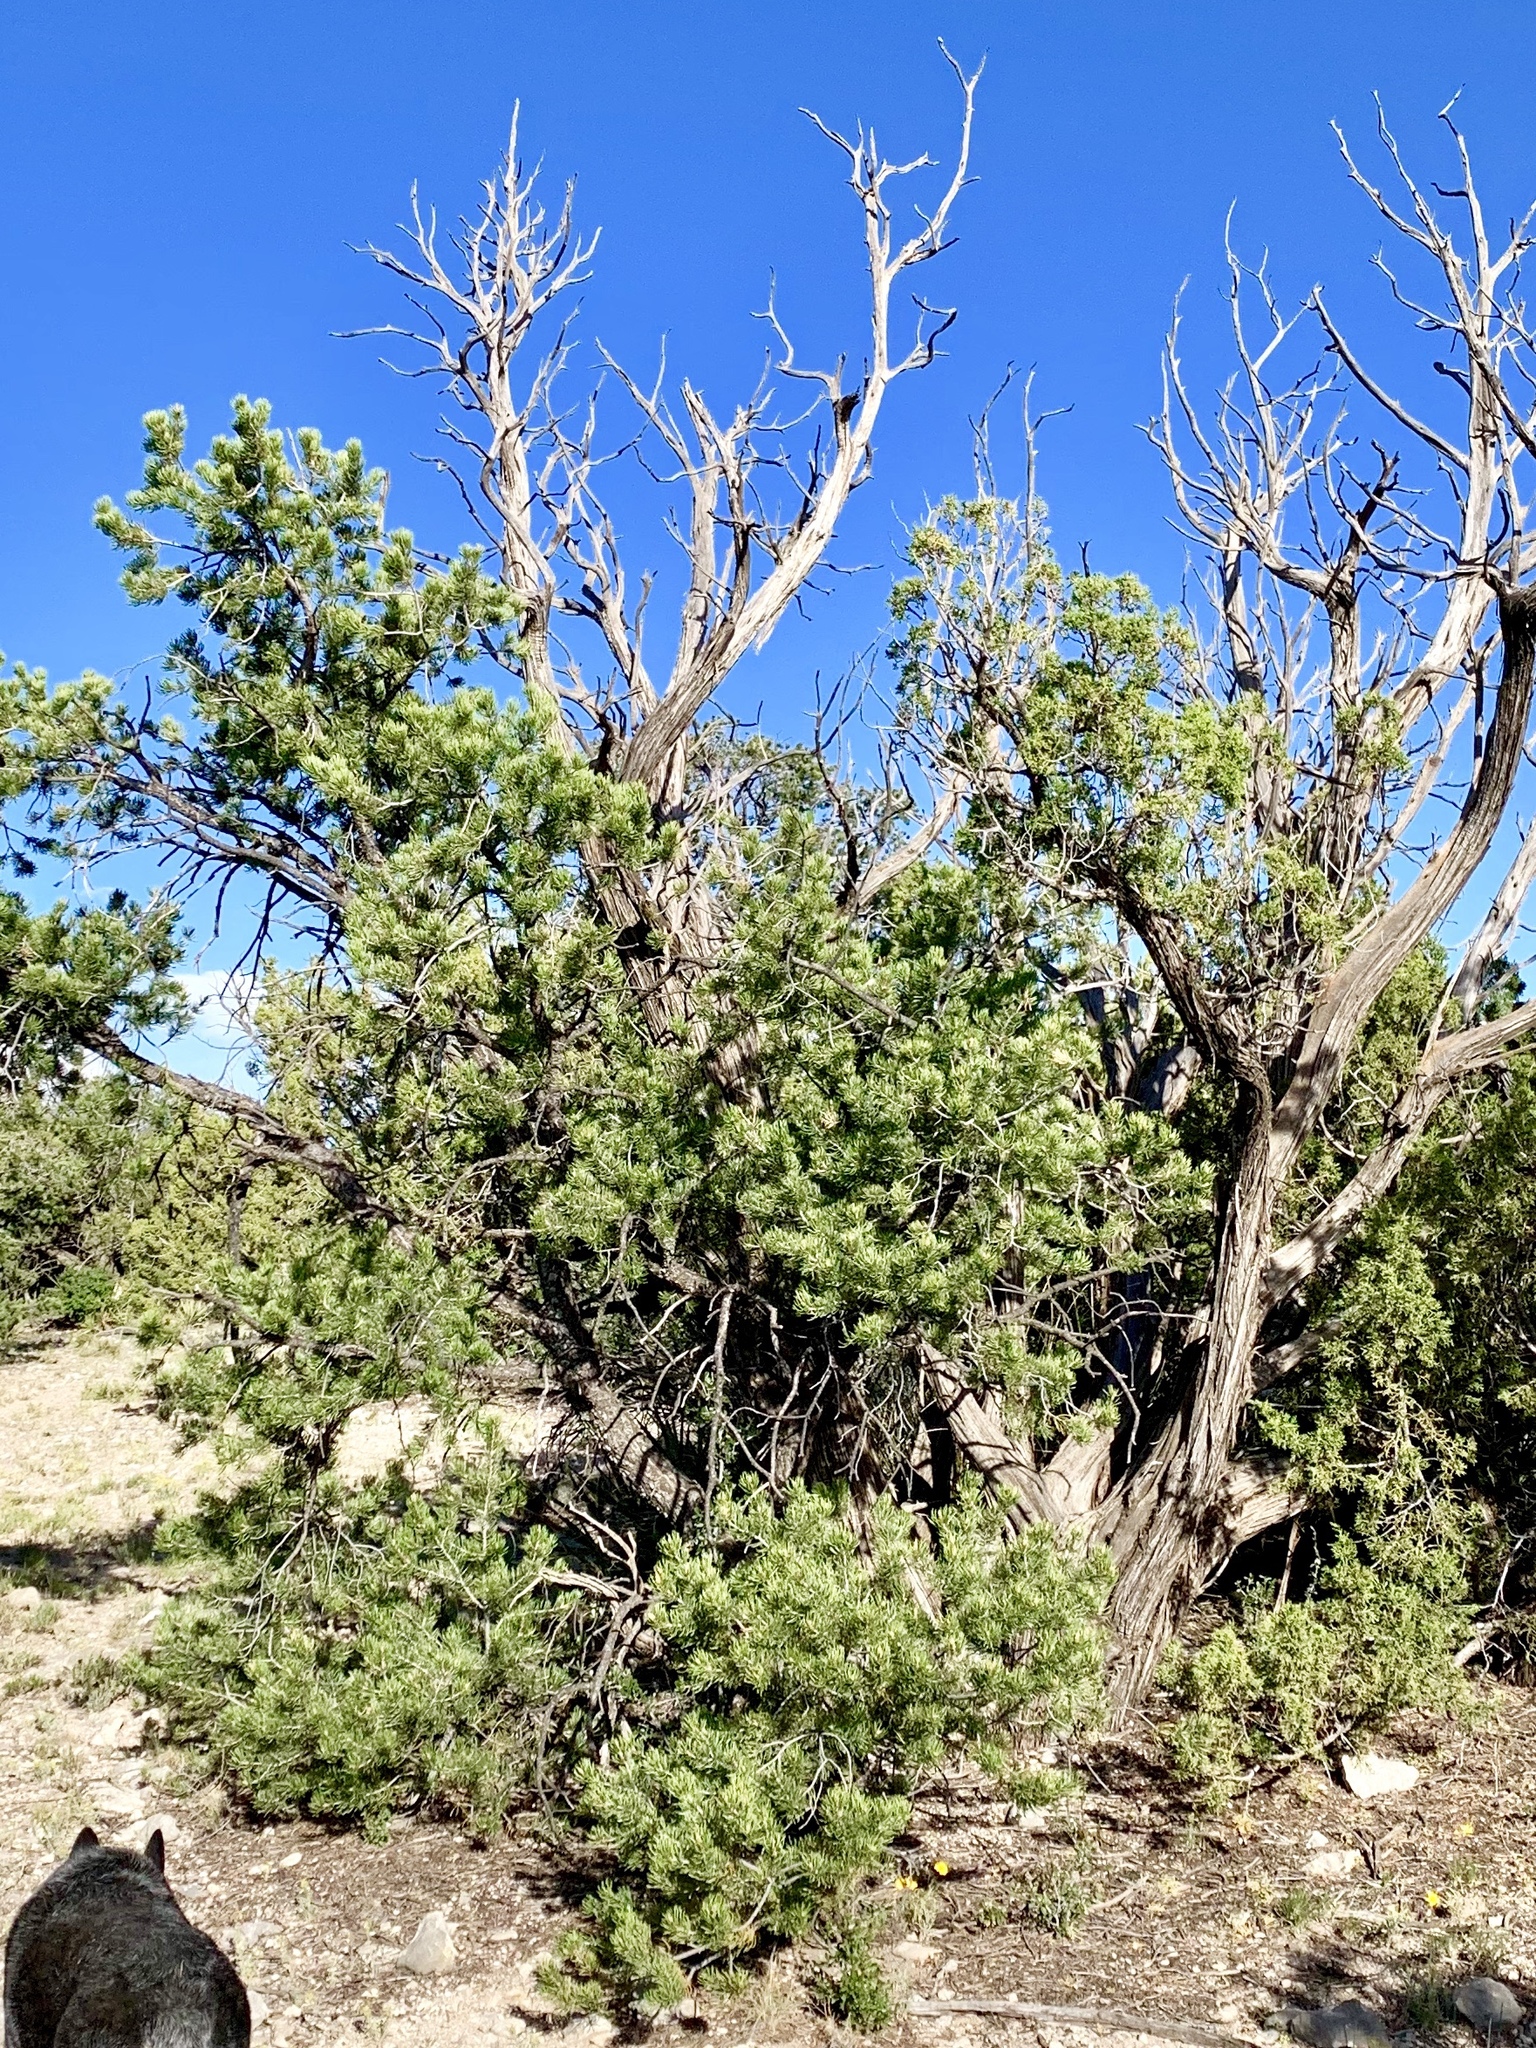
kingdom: Plantae
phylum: Tracheophyta
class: Pinopsida
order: Pinales
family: Pinaceae
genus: Pinus
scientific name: Pinus edulis
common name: Colorado pinyon
